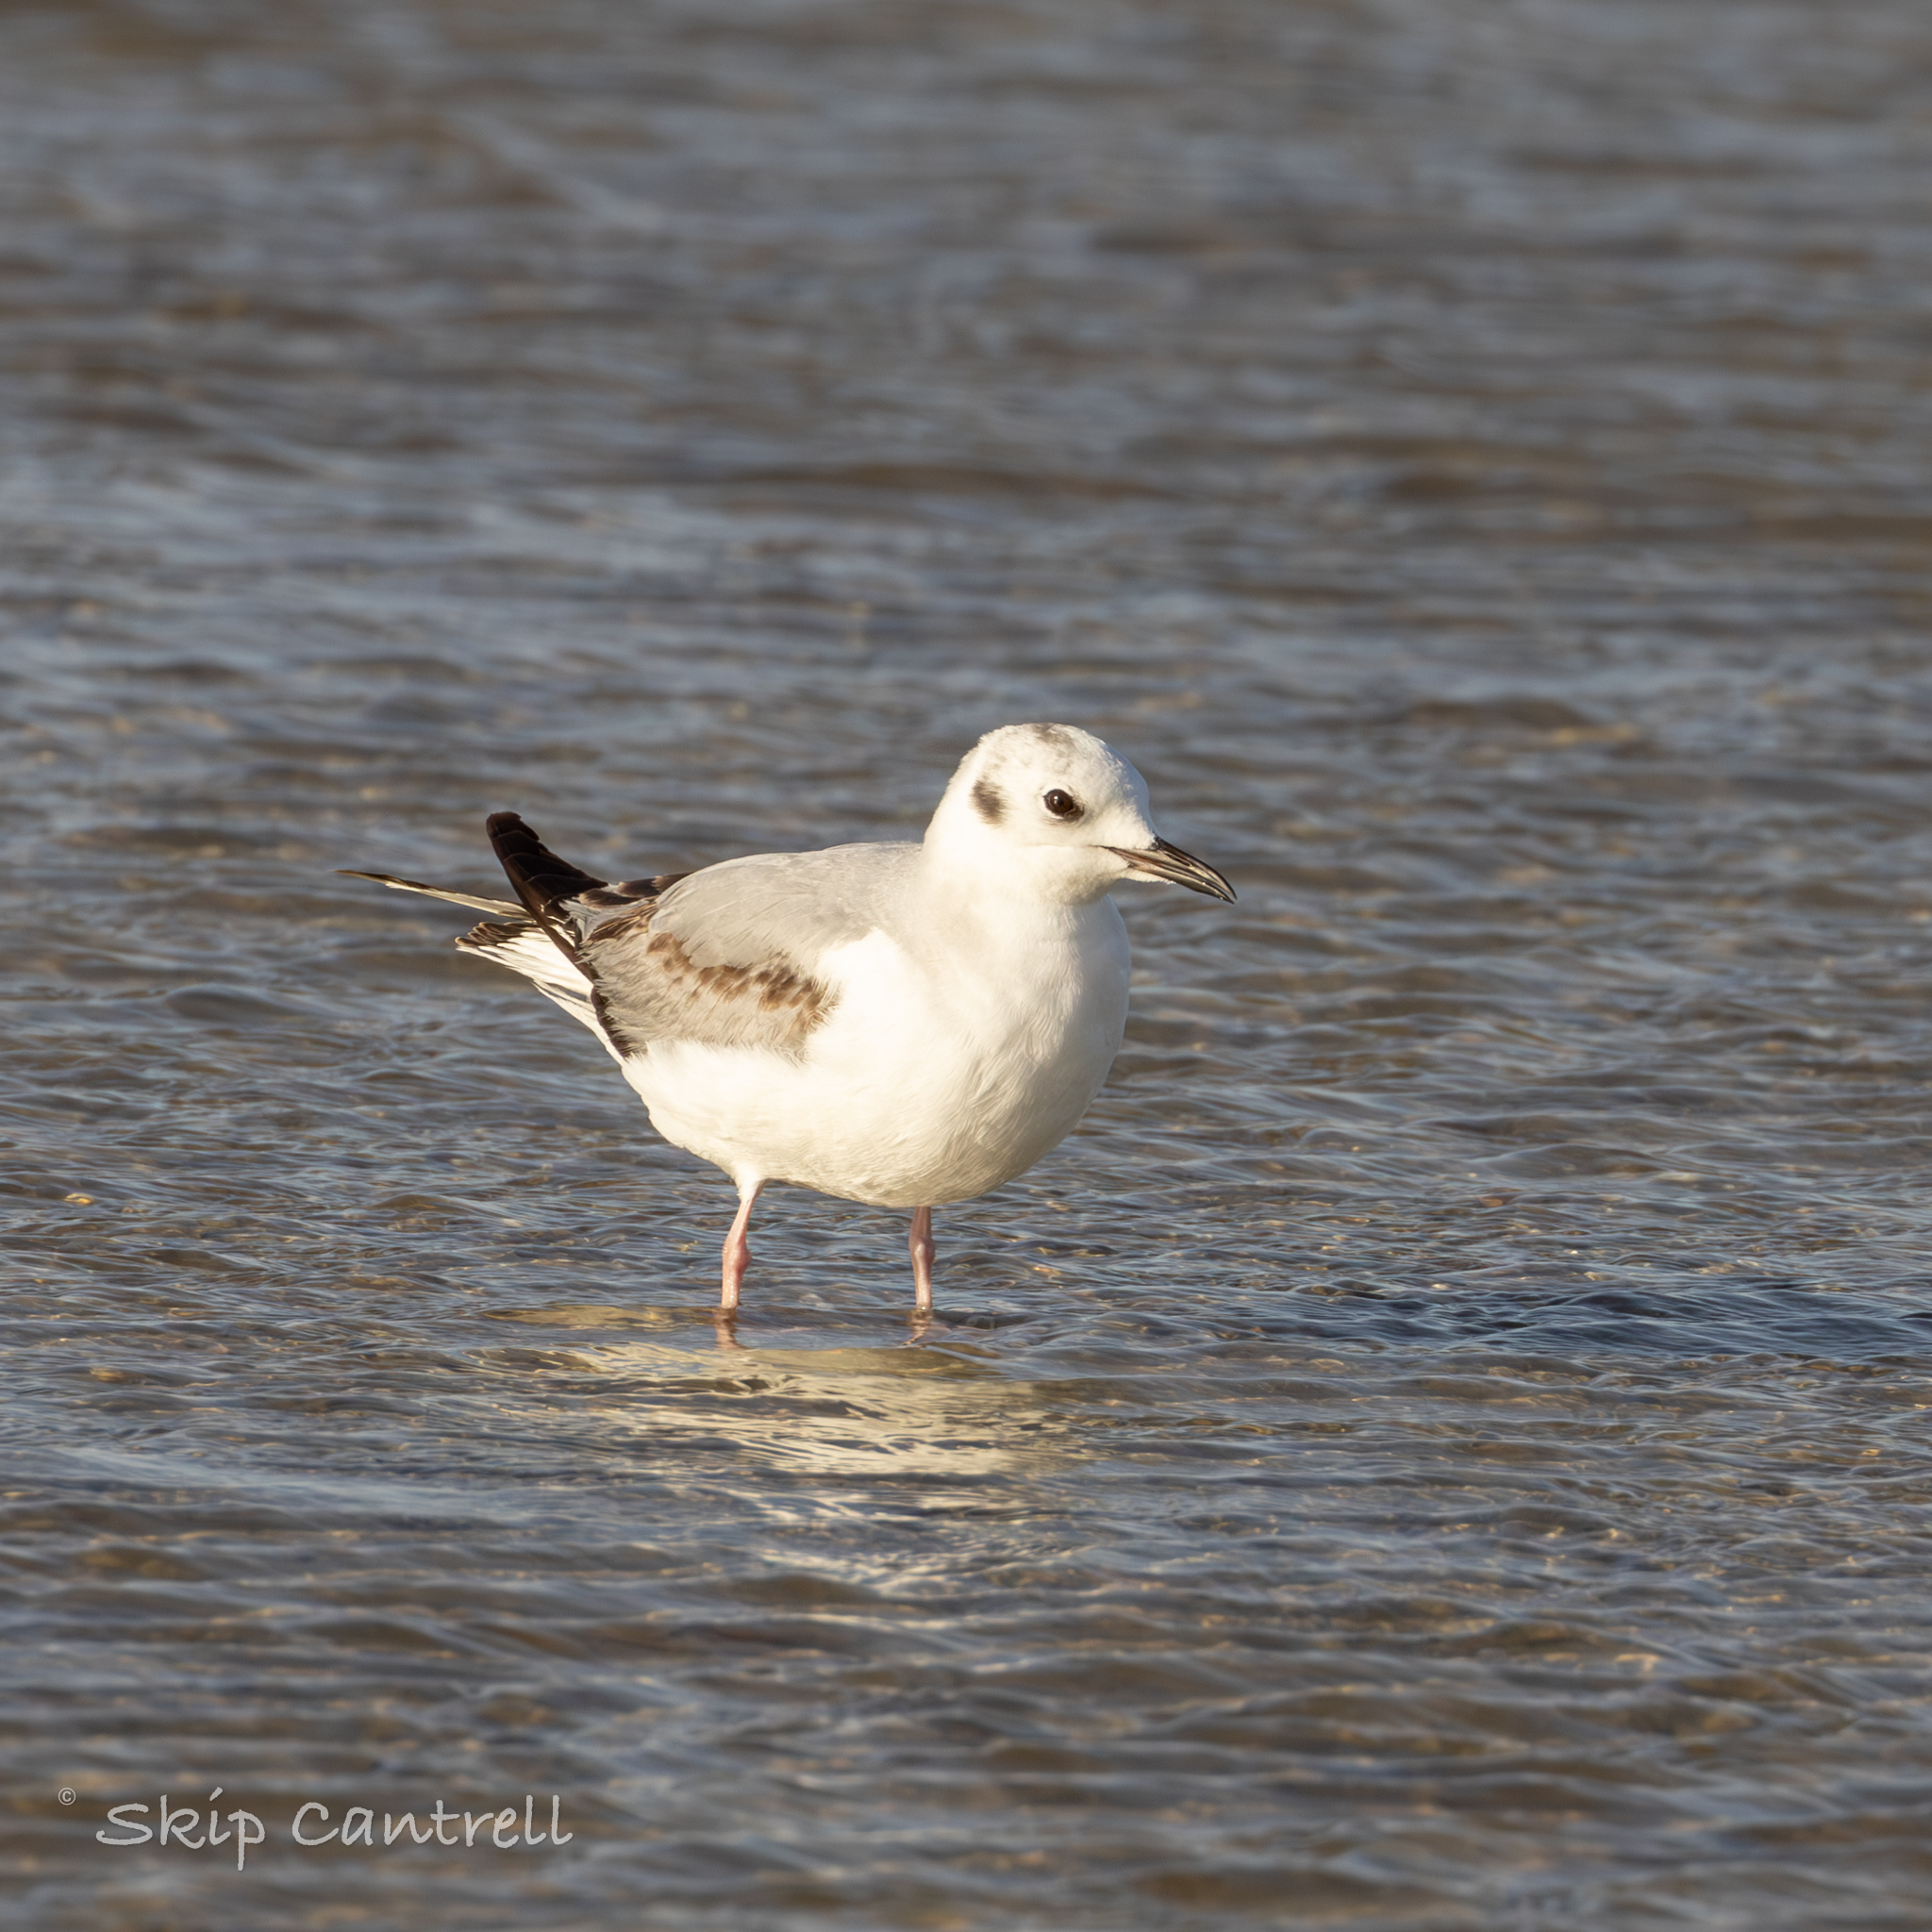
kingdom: Animalia
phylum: Chordata
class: Aves
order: Charadriiformes
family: Laridae
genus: Chroicocephalus
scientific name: Chroicocephalus philadelphia
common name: Bonaparte's gull
